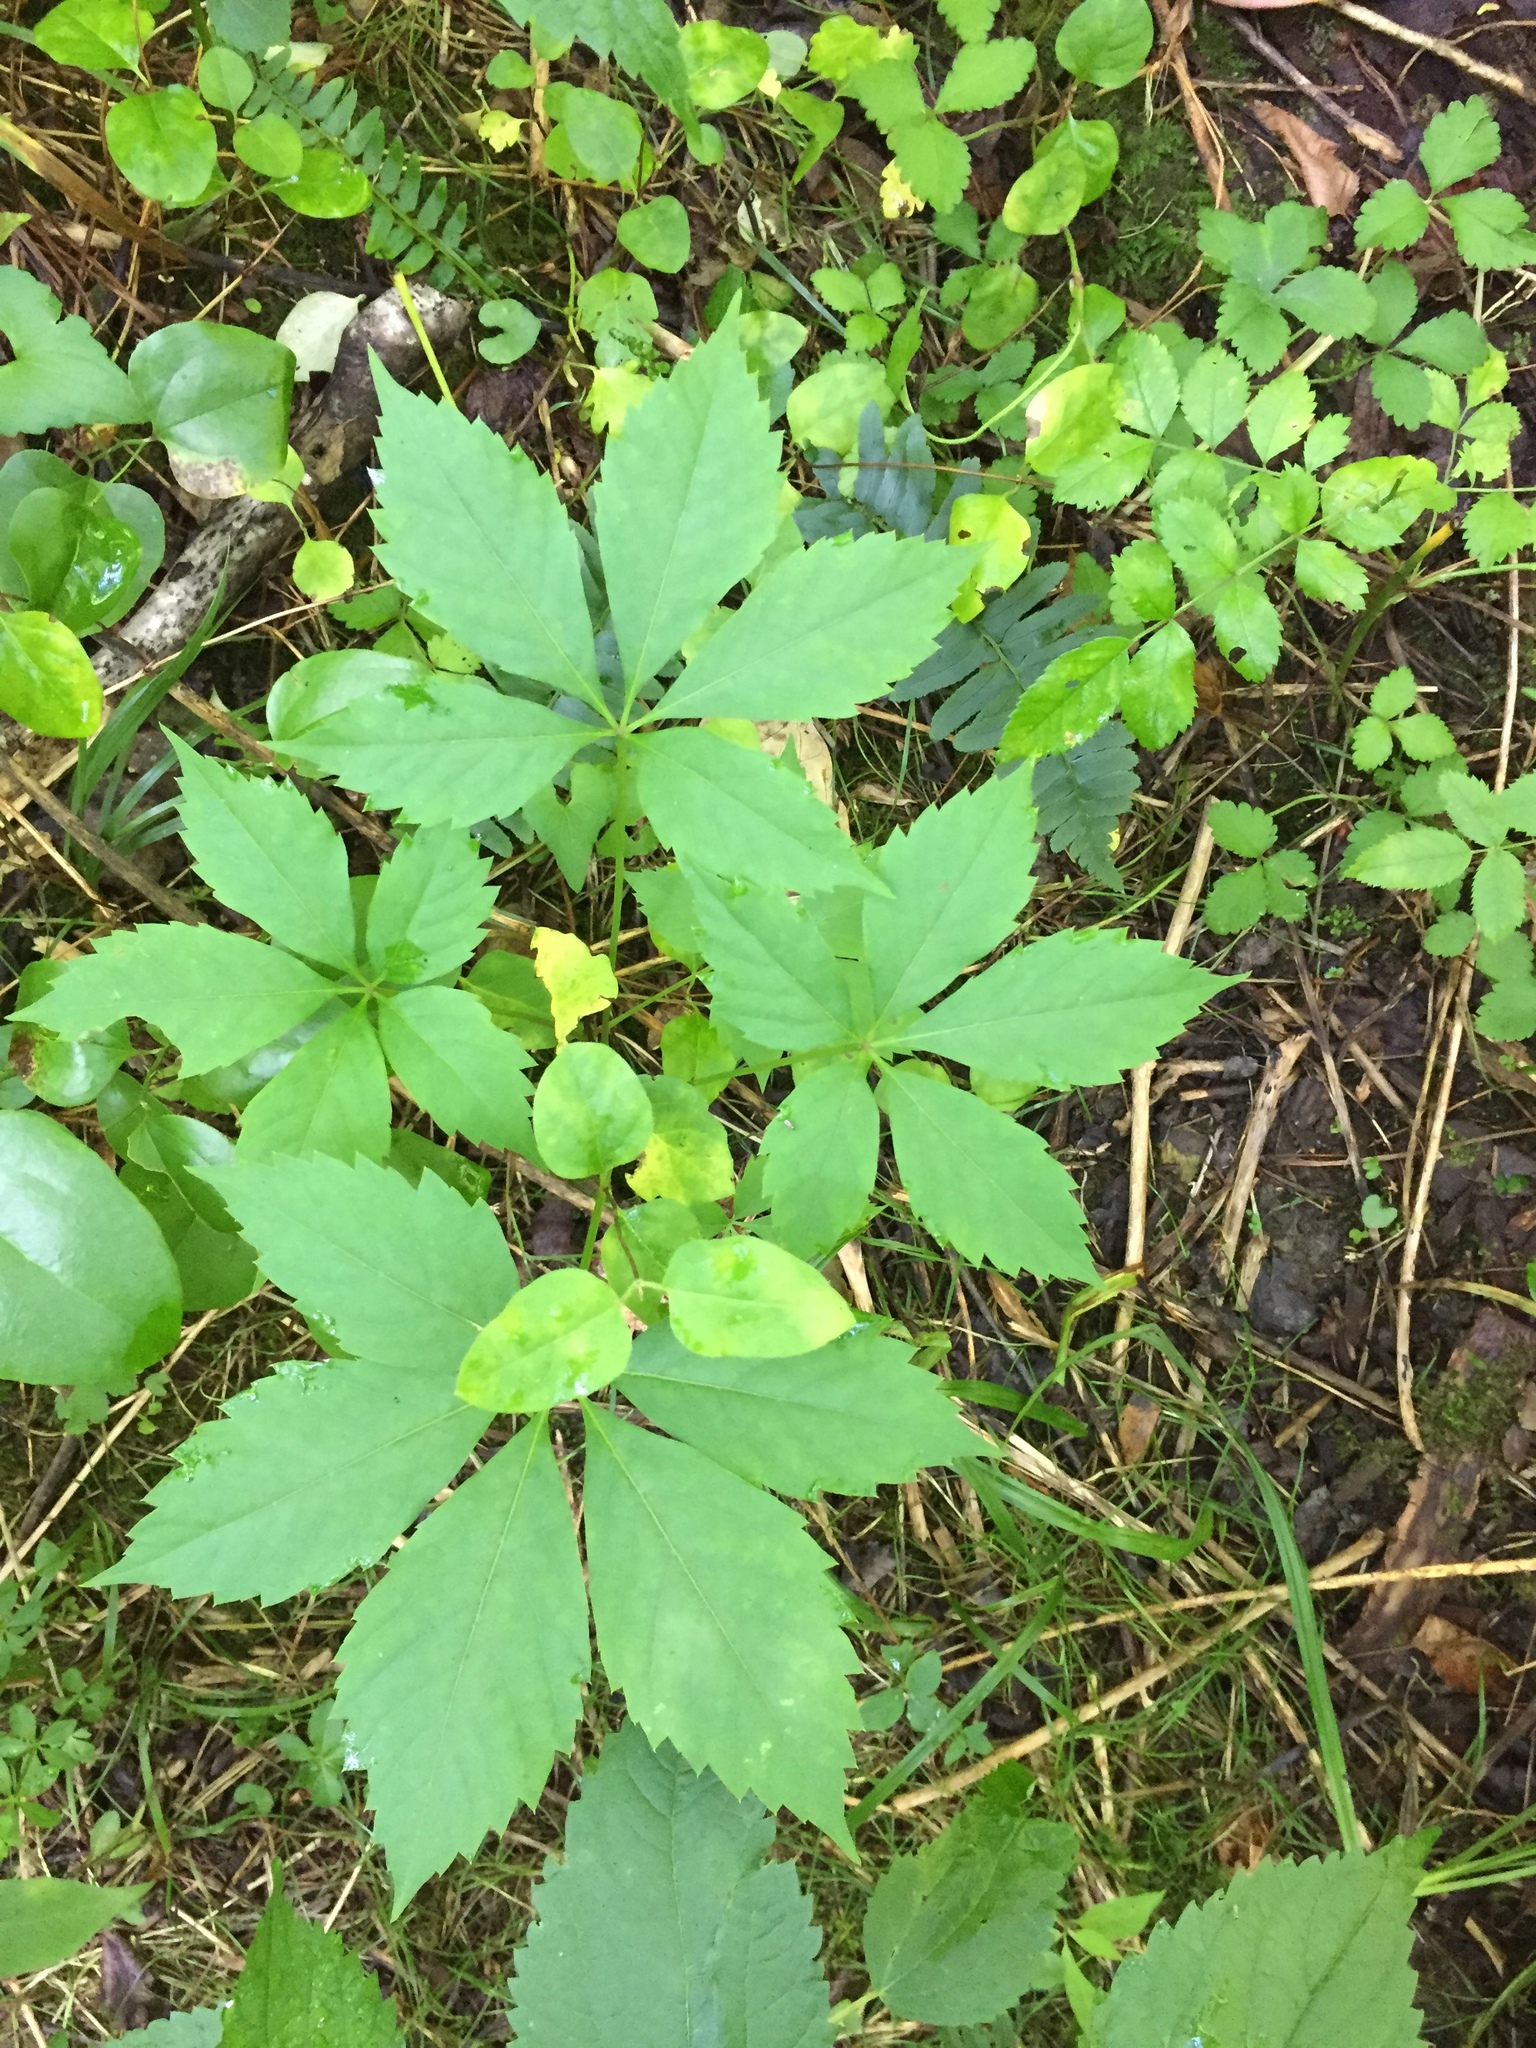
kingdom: Plantae
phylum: Tracheophyta
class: Magnoliopsida
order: Vitales
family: Vitaceae
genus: Parthenocissus
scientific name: Parthenocissus quinquefolia
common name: Virginia-creeper
